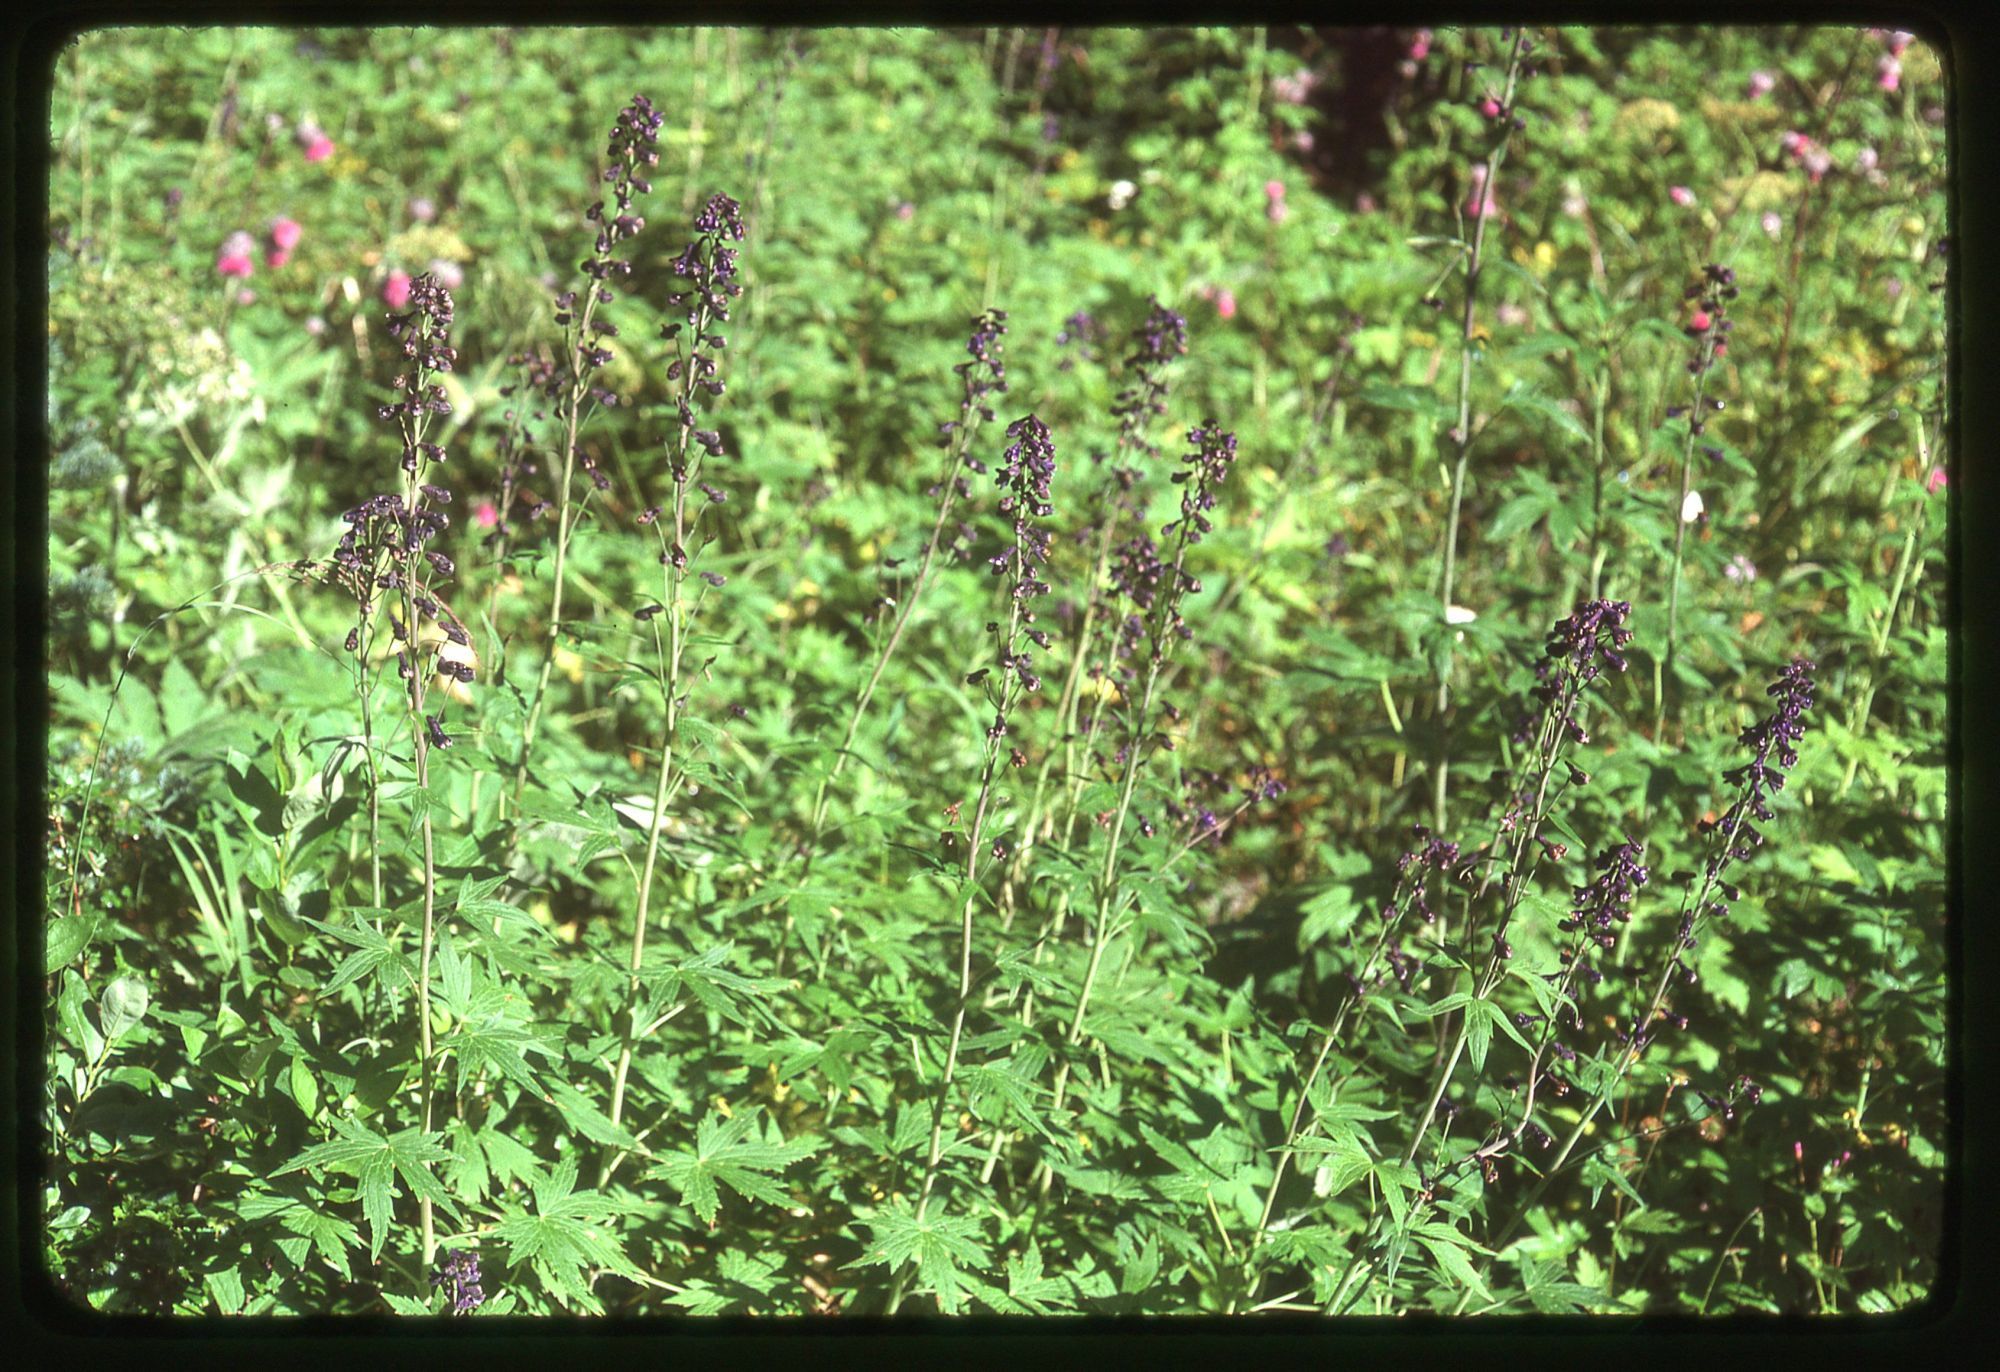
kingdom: Plantae
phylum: Tracheophyta
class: Magnoliopsida
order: Ranunculales
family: Ranunculaceae
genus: Delphinium
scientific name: Delphinium glaucum
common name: Brown's larkspur
